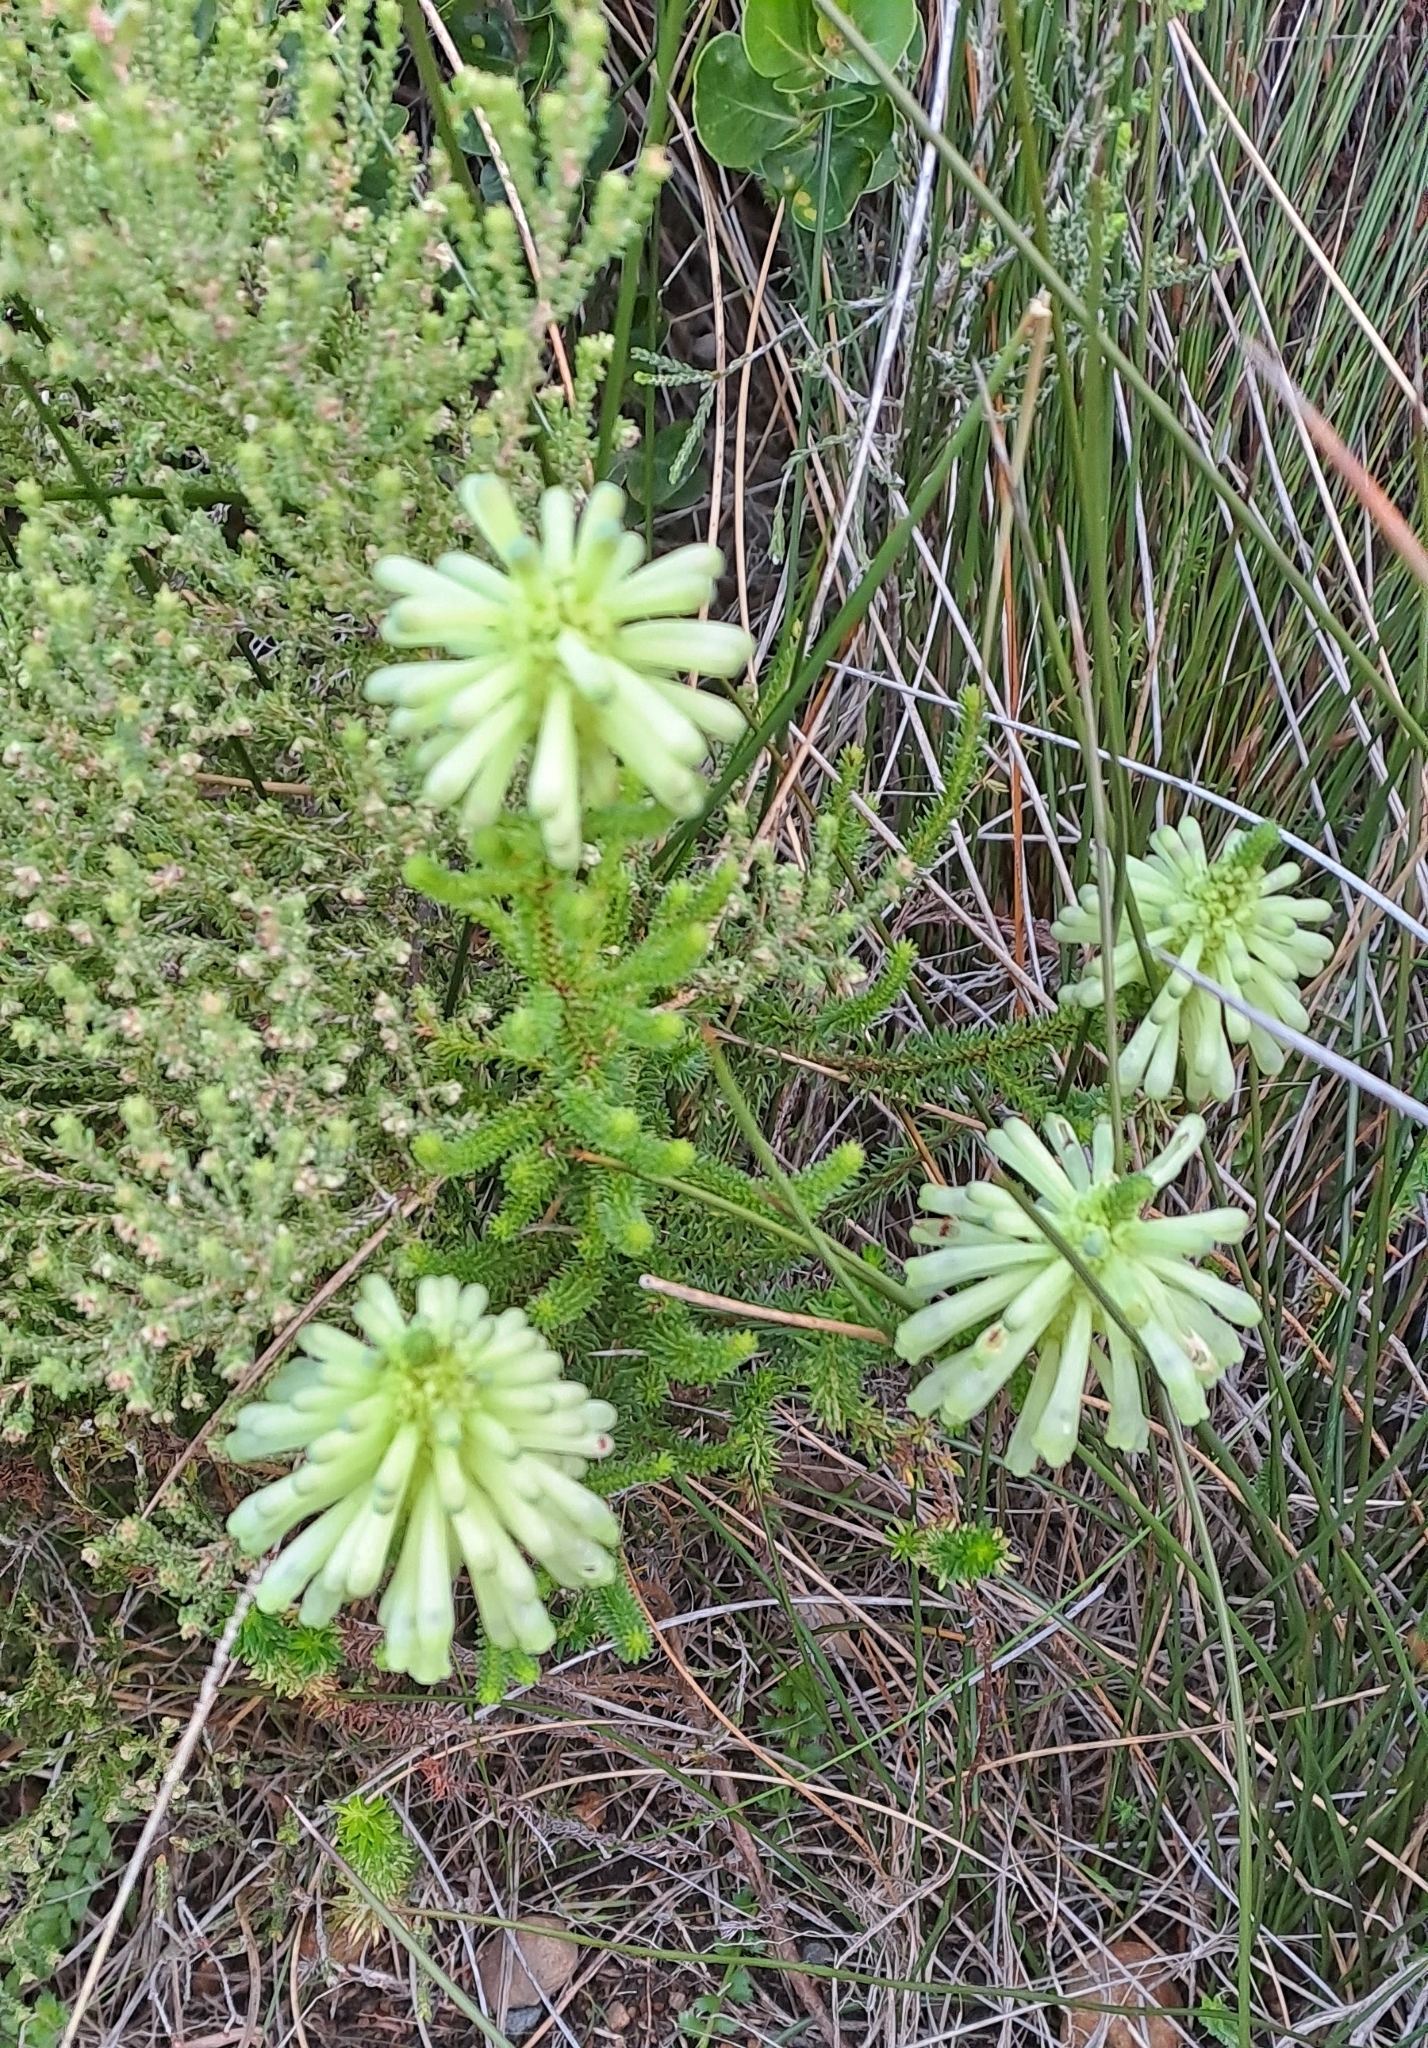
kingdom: Plantae
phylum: Tracheophyta
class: Magnoliopsida
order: Ericales
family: Ericaceae
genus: Erica
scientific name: Erica sessiliflora
